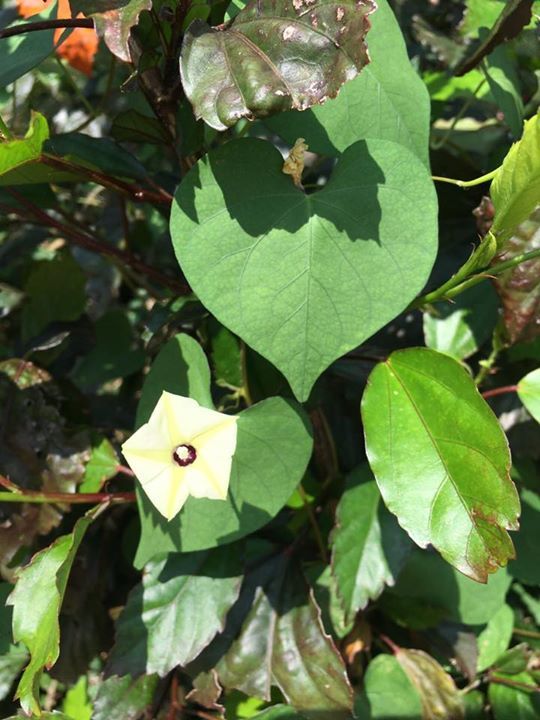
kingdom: Plantae
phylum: Tracheophyta
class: Magnoliopsida
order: Solanales
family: Convolvulaceae
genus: Ipomoea
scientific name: Ipomoea obscura
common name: Obscure morning-glory
